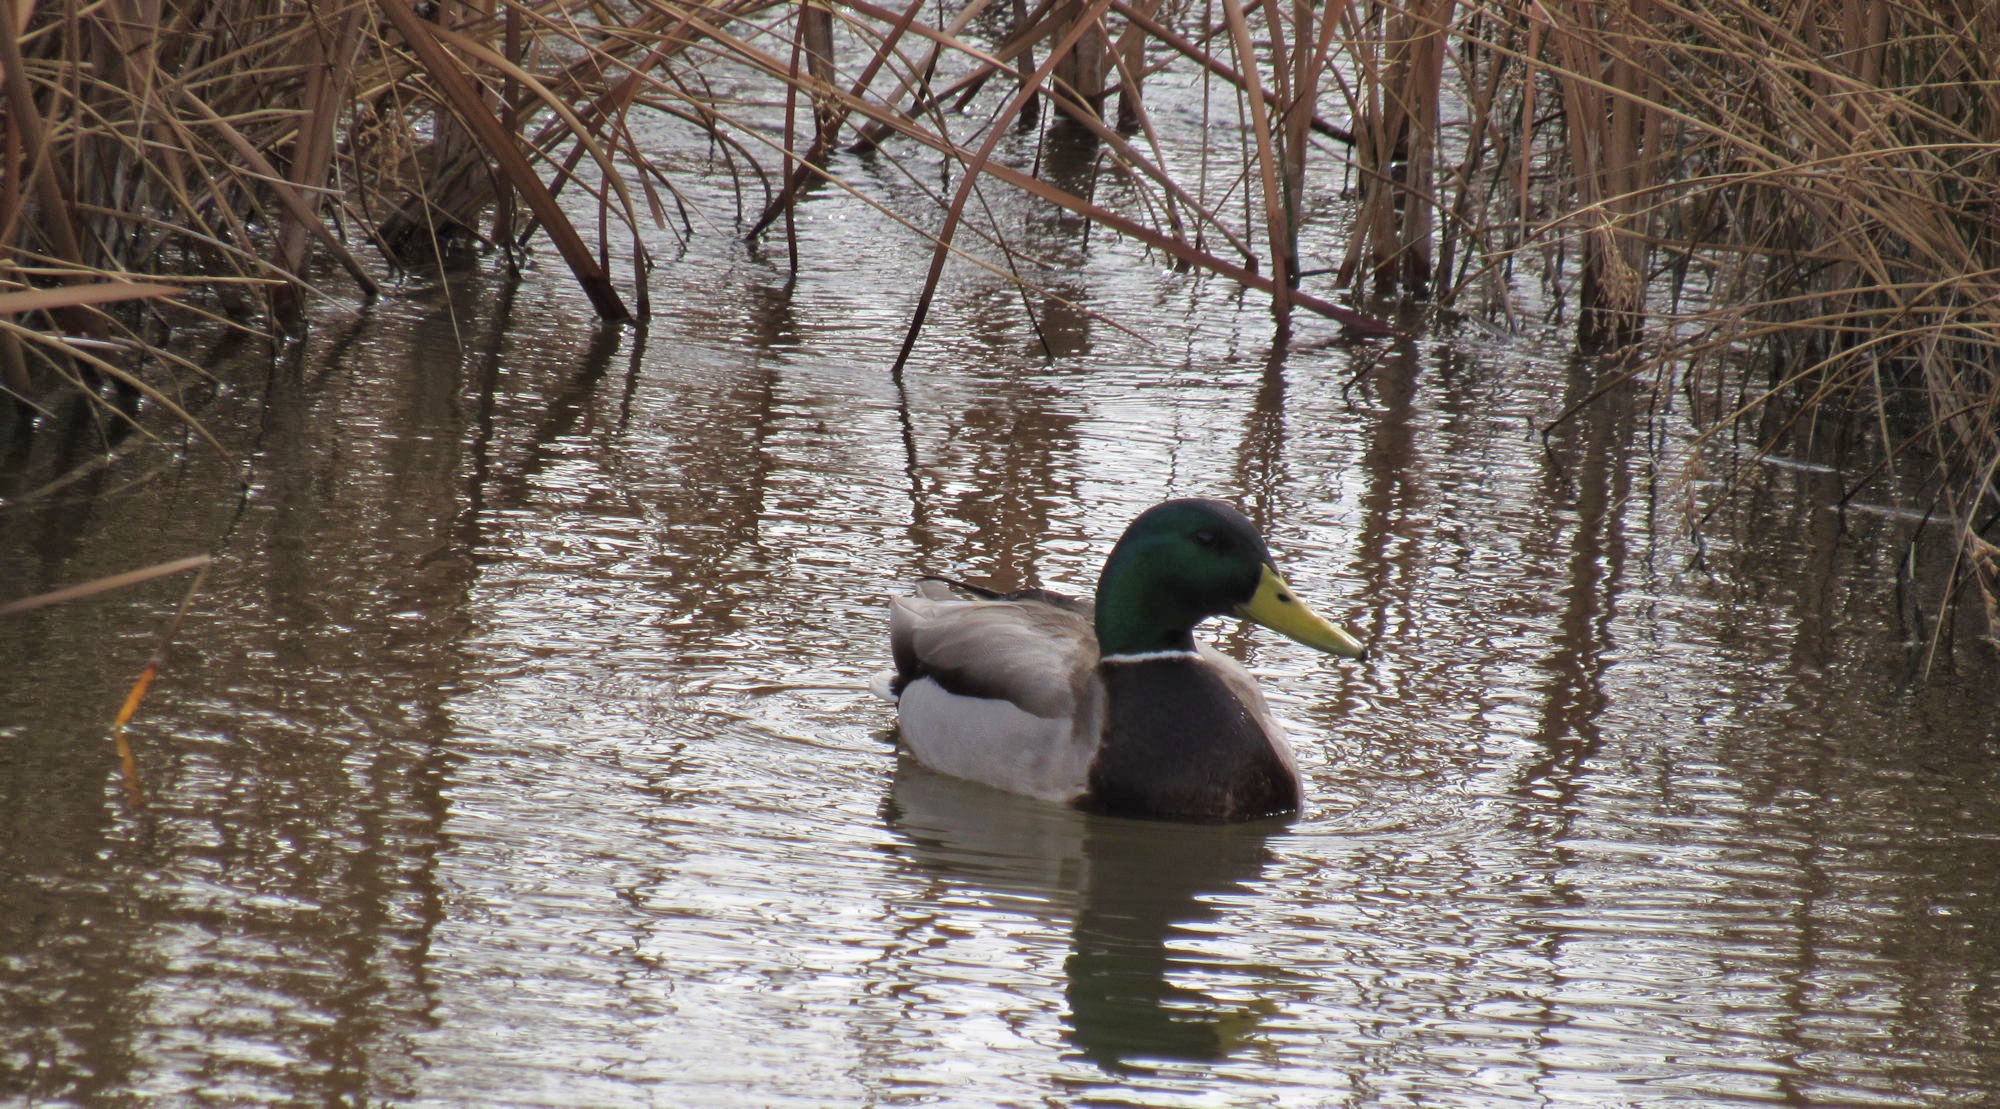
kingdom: Animalia
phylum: Chordata
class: Aves
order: Anseriformes
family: Anatidae
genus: Anas
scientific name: Anas platyrhynchos
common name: Mallard
